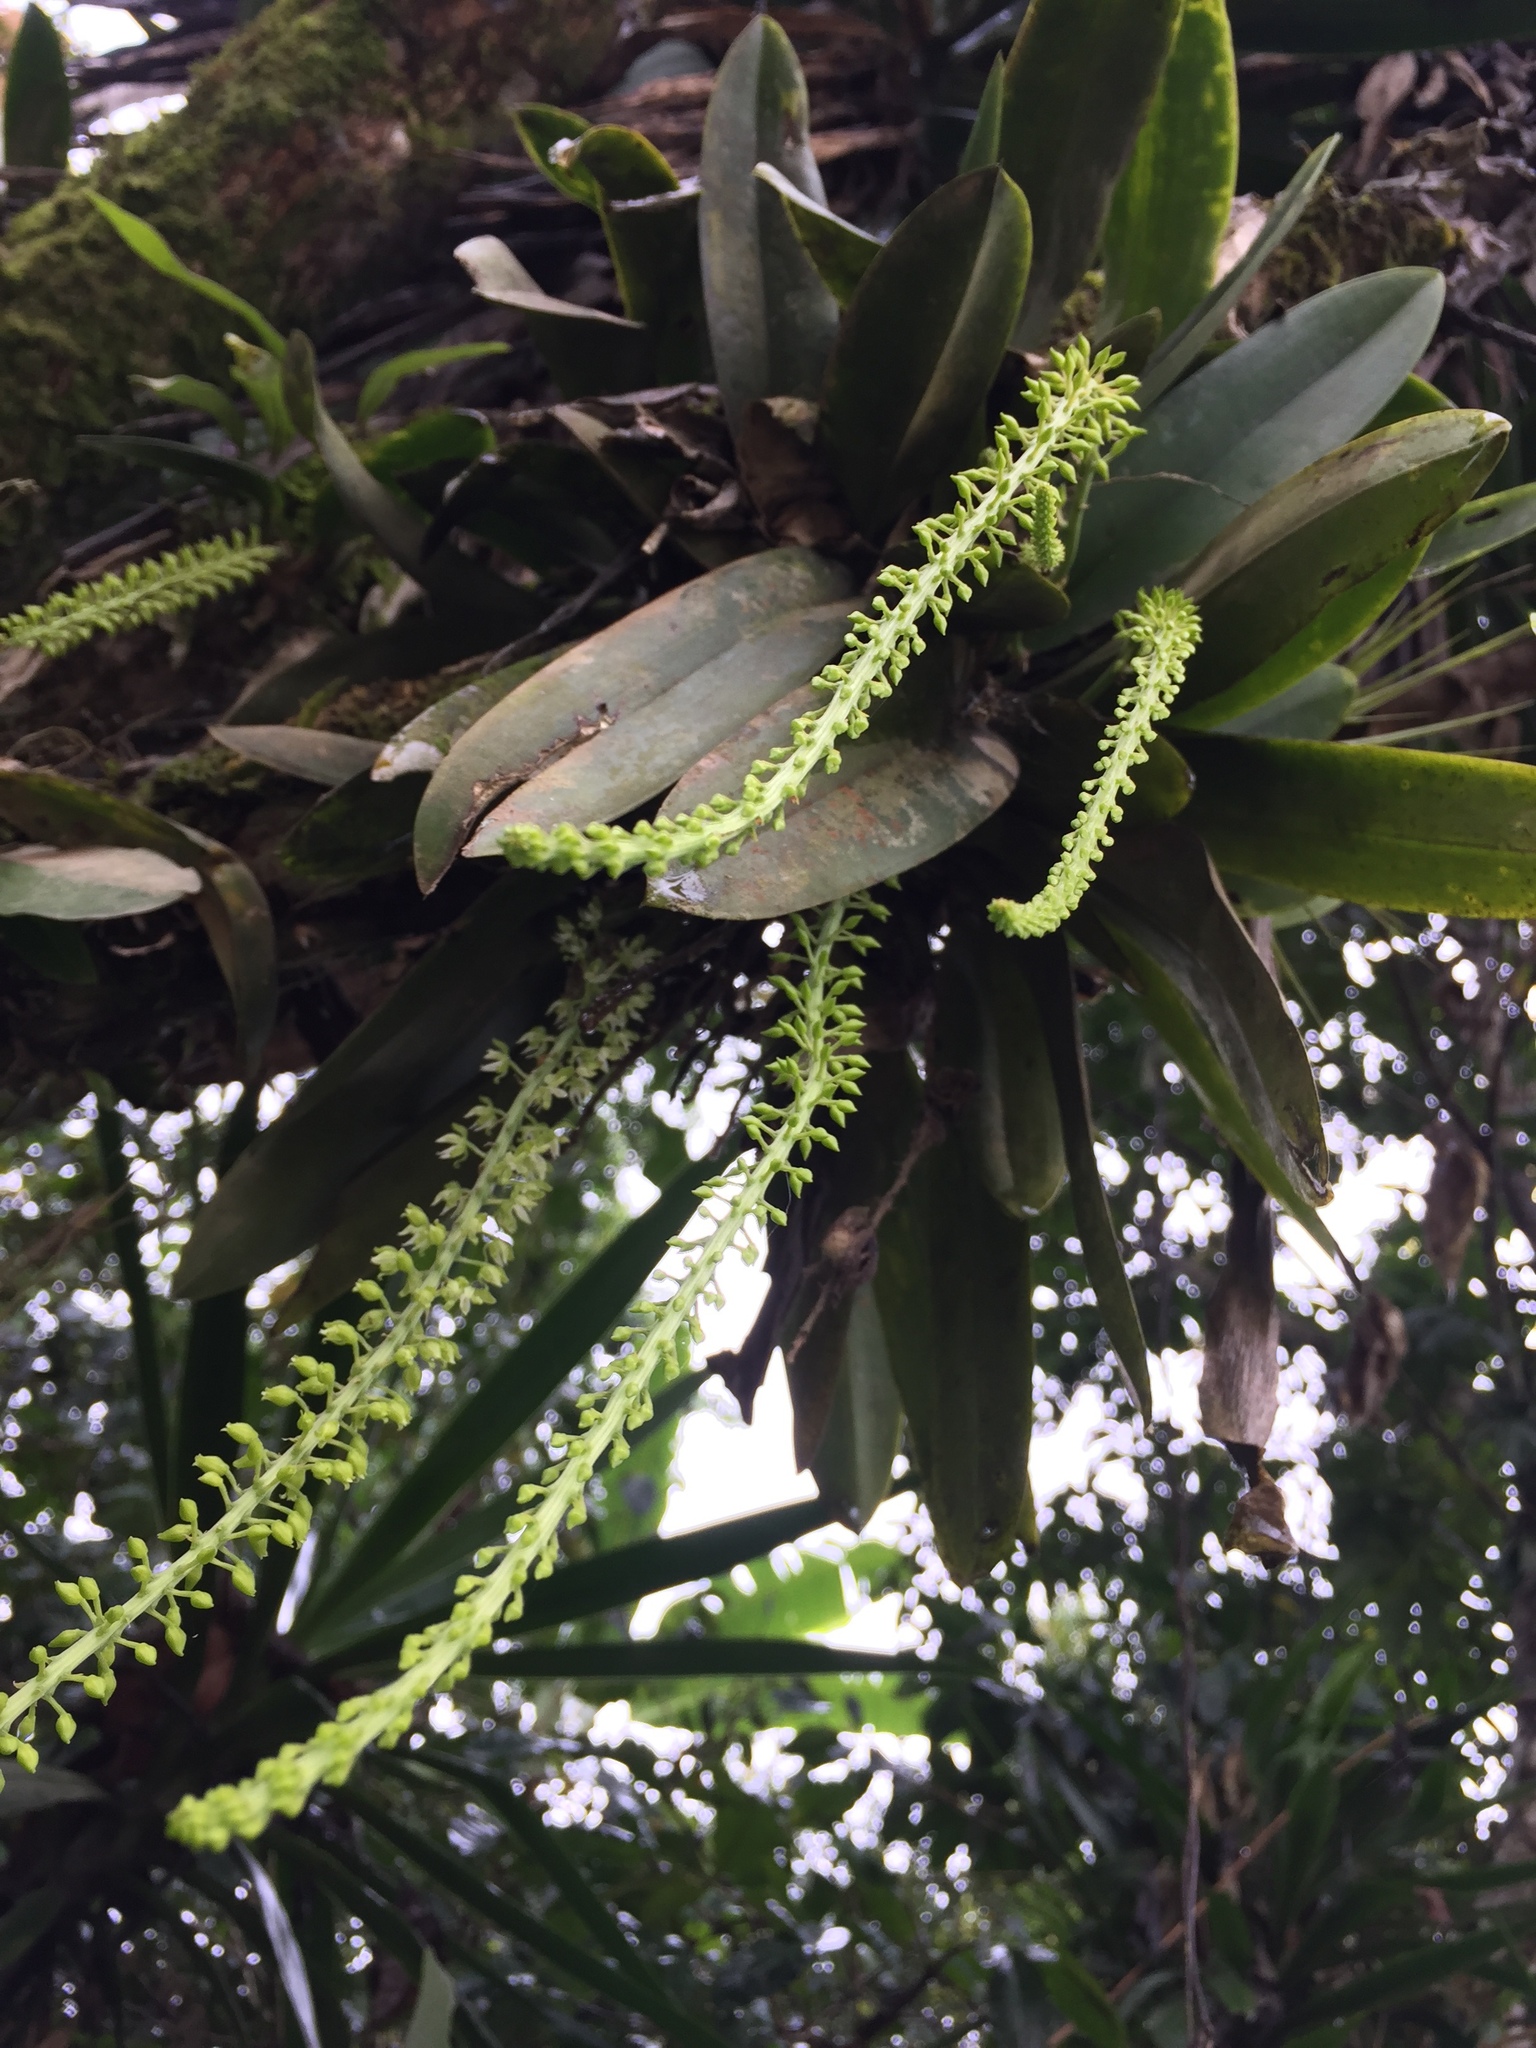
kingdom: Plantae
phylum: Tracheophyta
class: Liliopsida
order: Asparagales
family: Orchidaceae
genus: Notylia
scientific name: Notylia barkeri
